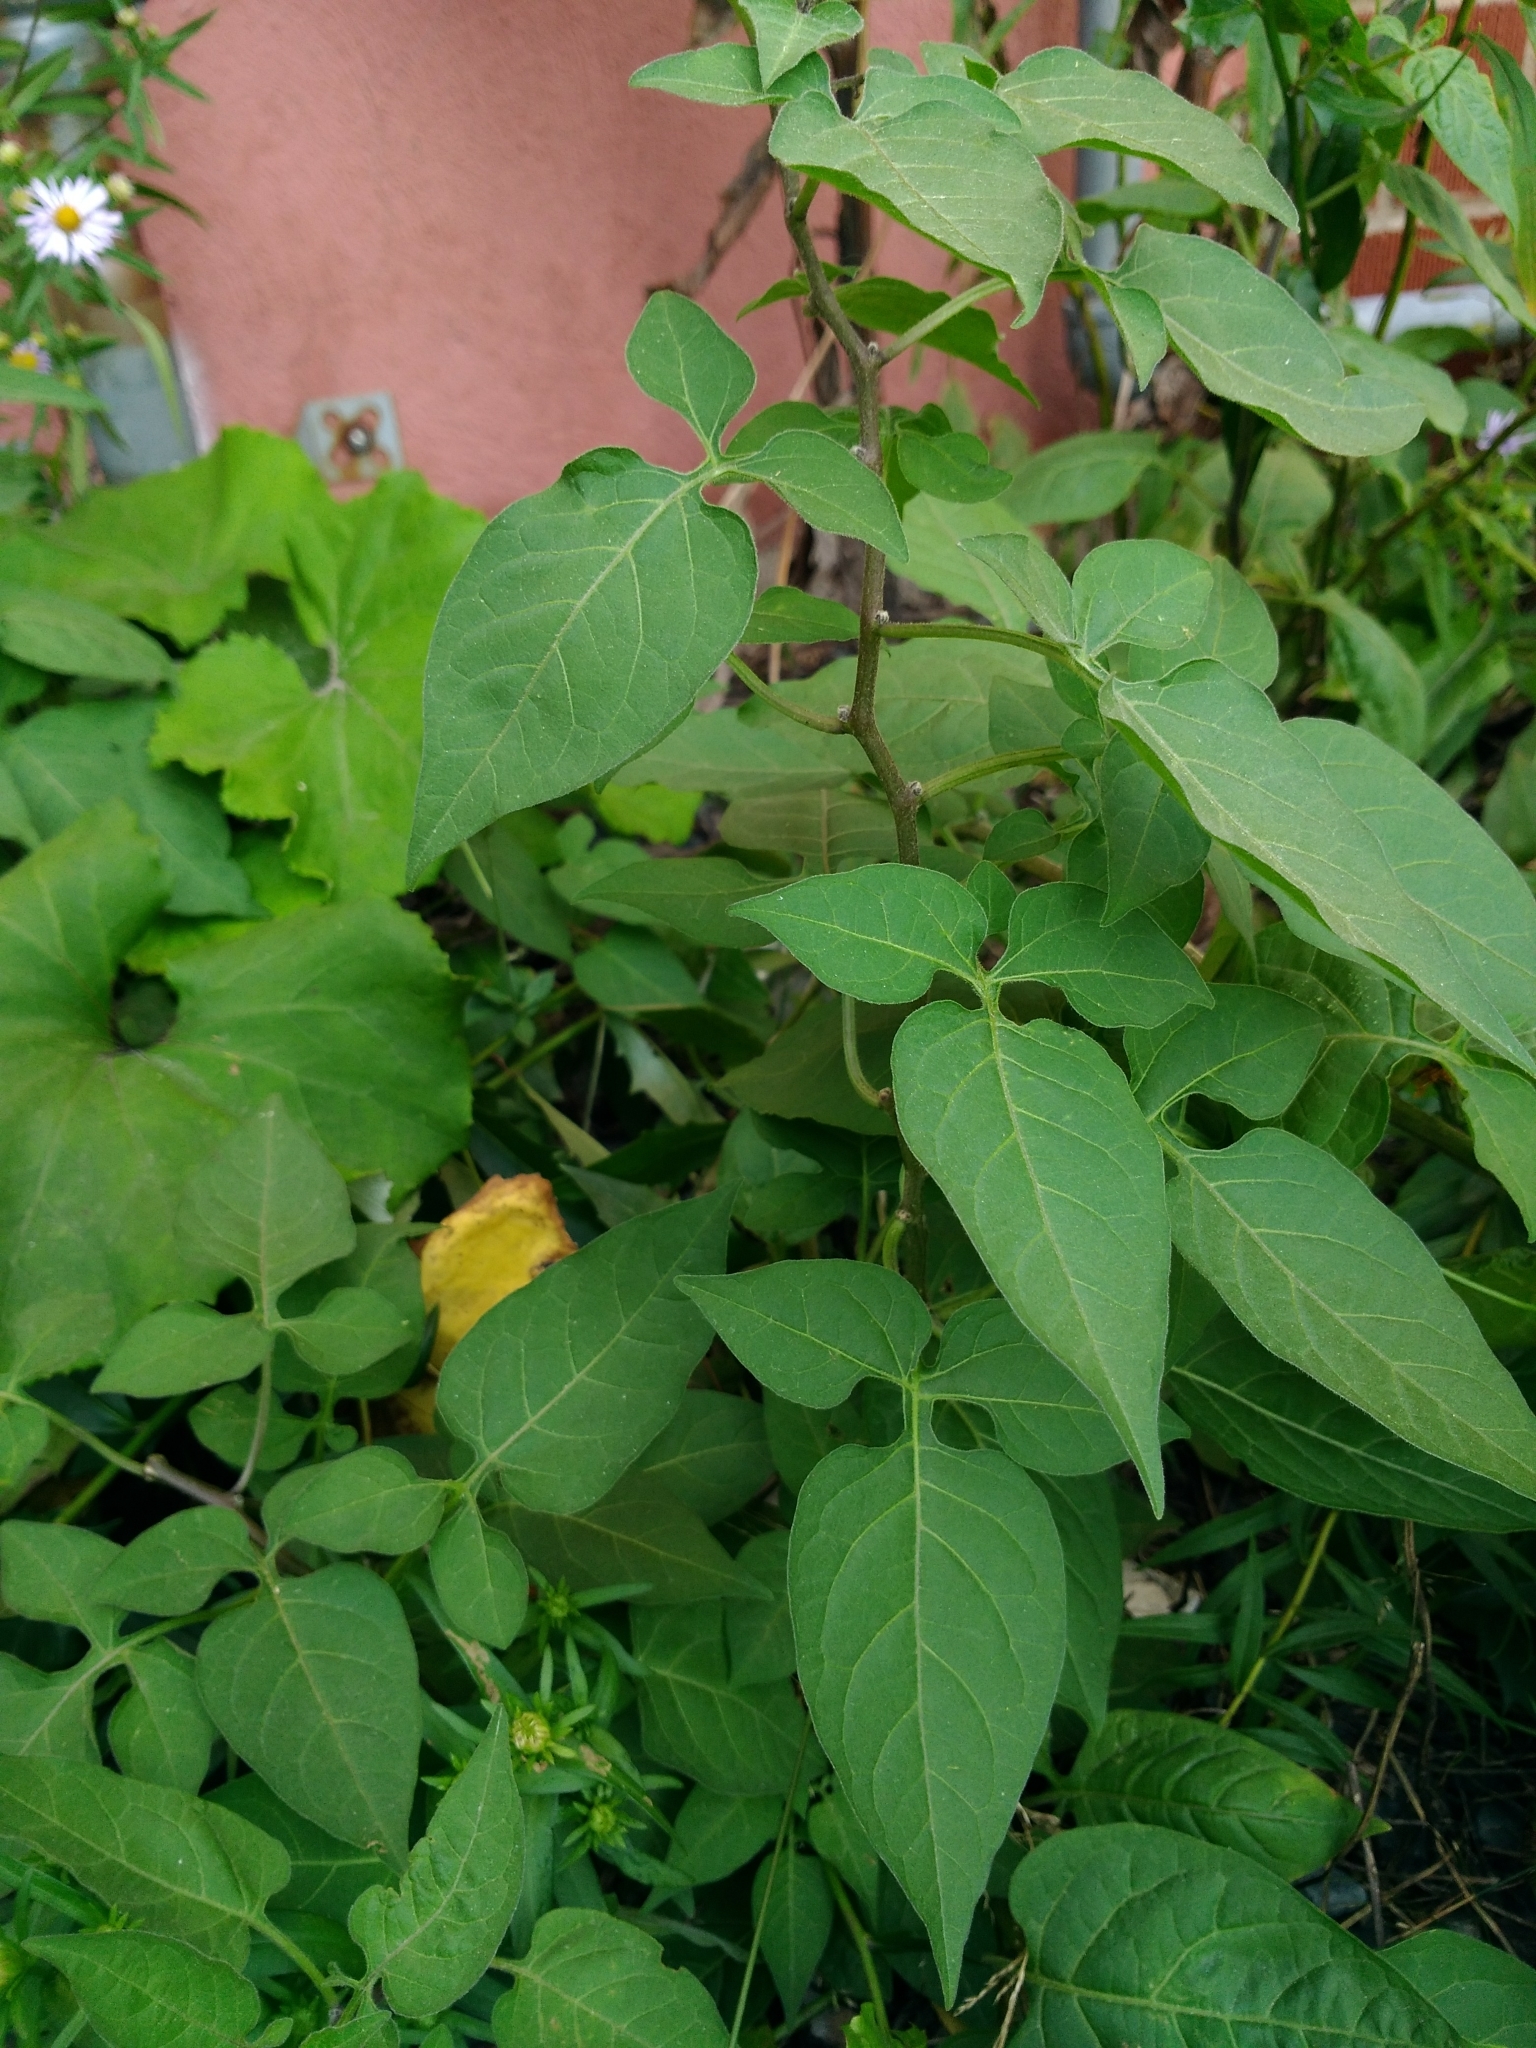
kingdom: Plantae
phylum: Tracheophyta
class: Magnoliopsida
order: Solanales
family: Solanaceae
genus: Solanum
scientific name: Solanum dulcamara
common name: Climbing nightshade
